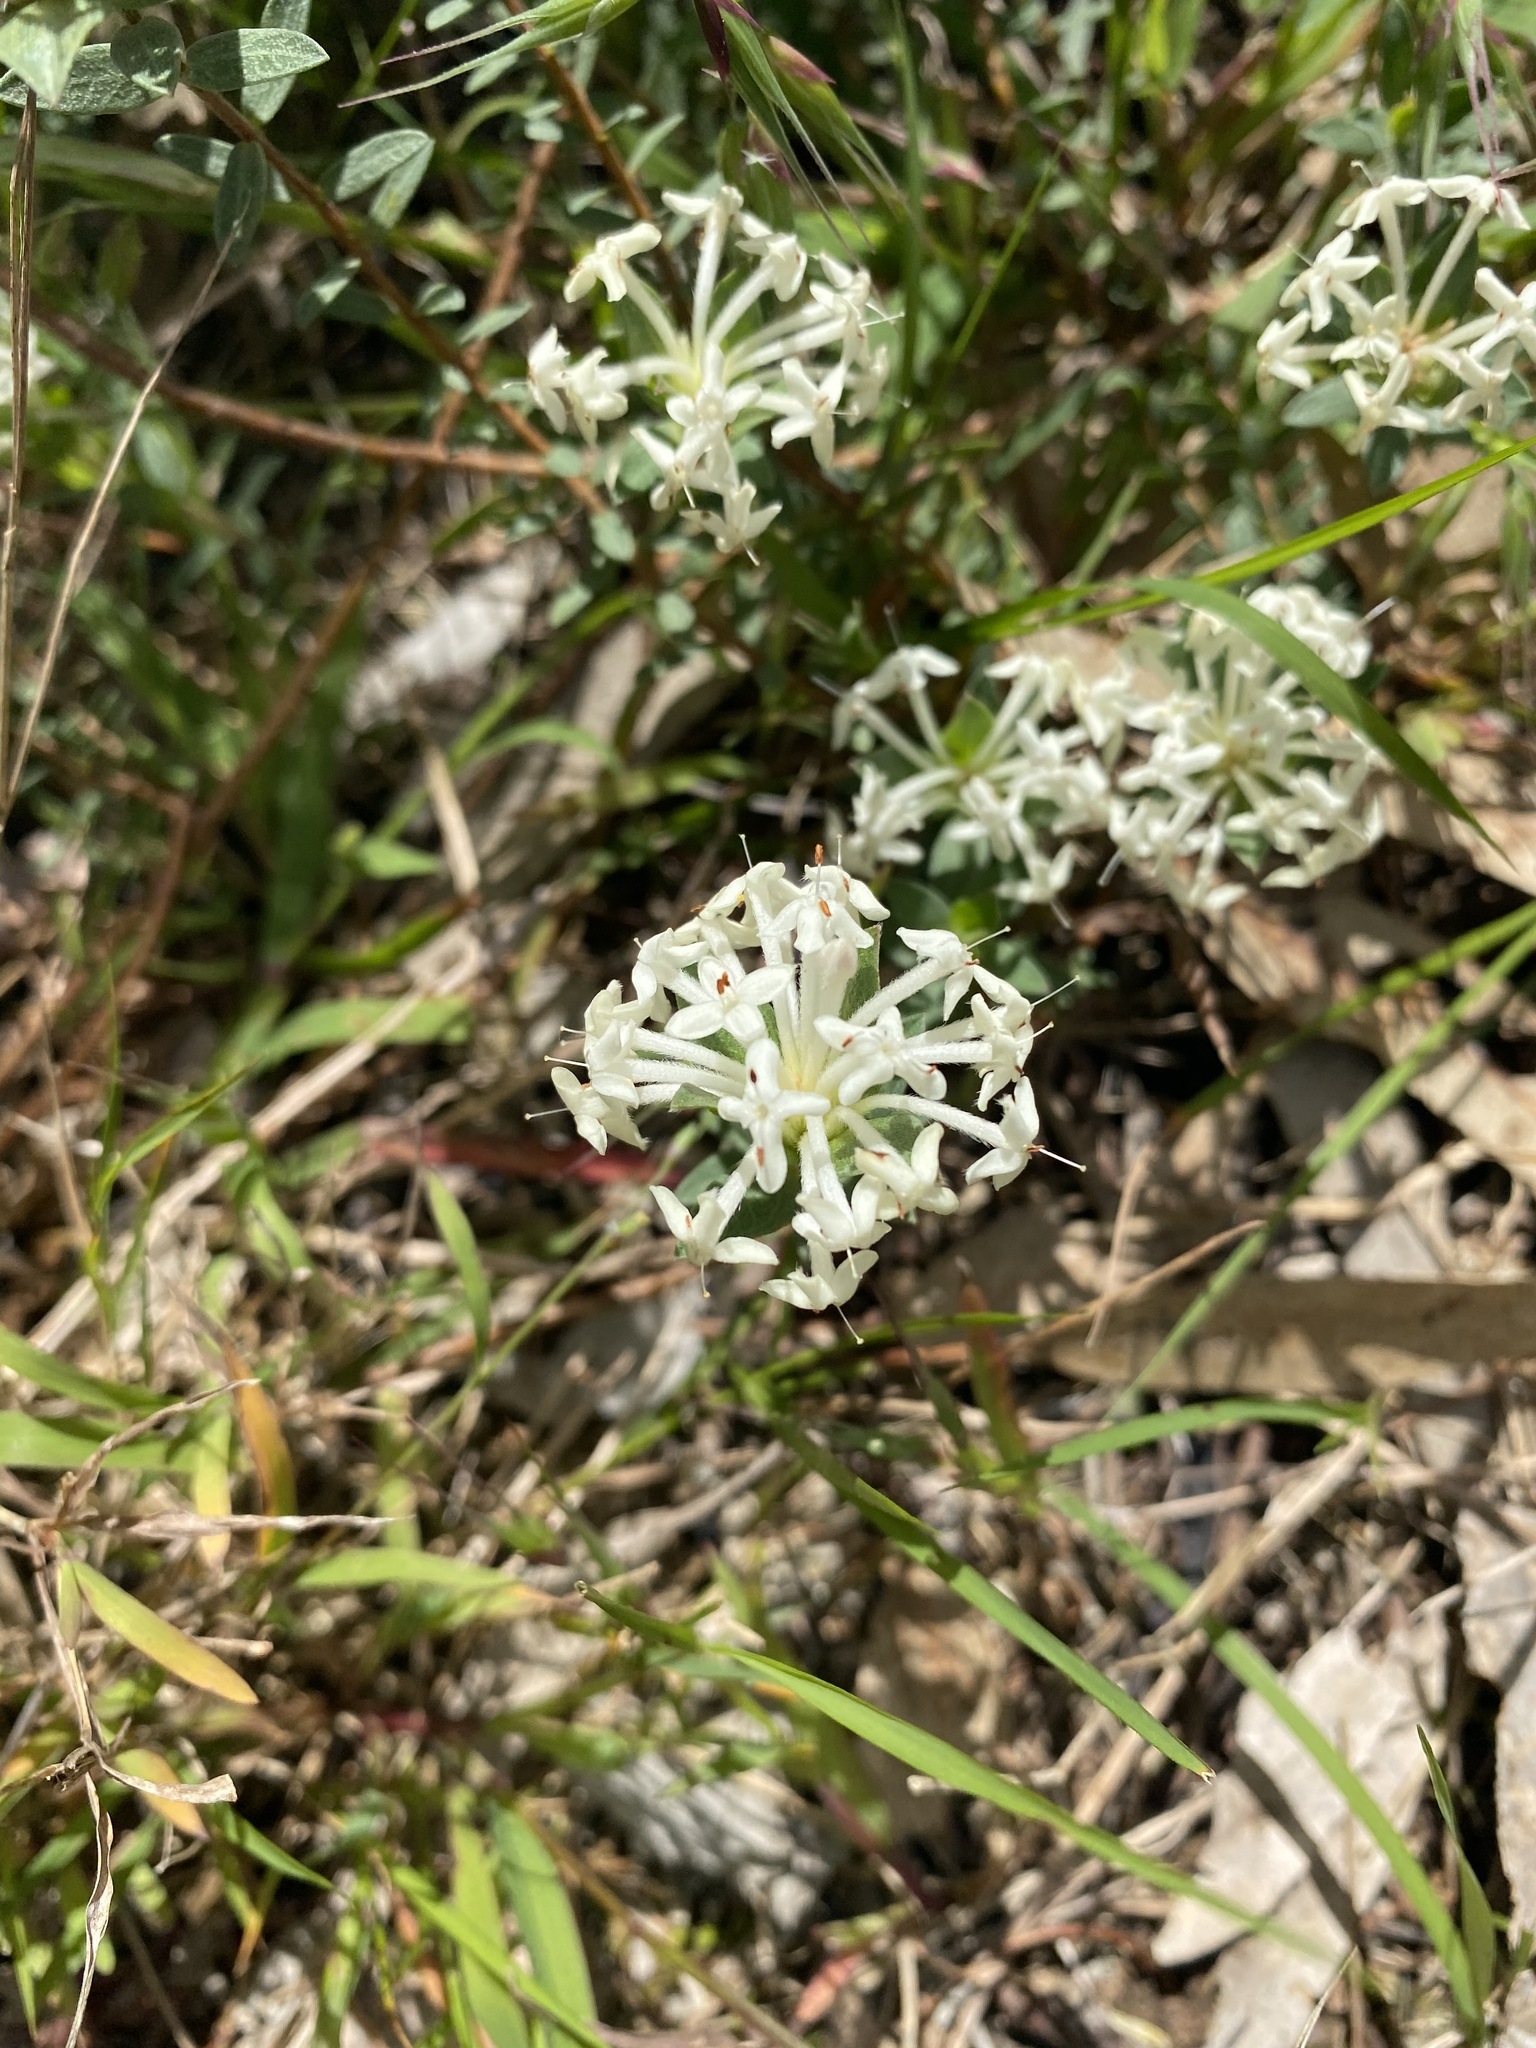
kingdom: Plantae
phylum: Tracheophyta
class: Magnoliopsida
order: Malvales
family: Thymelaeaceae
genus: Pimelea
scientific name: Pimelea humilis
